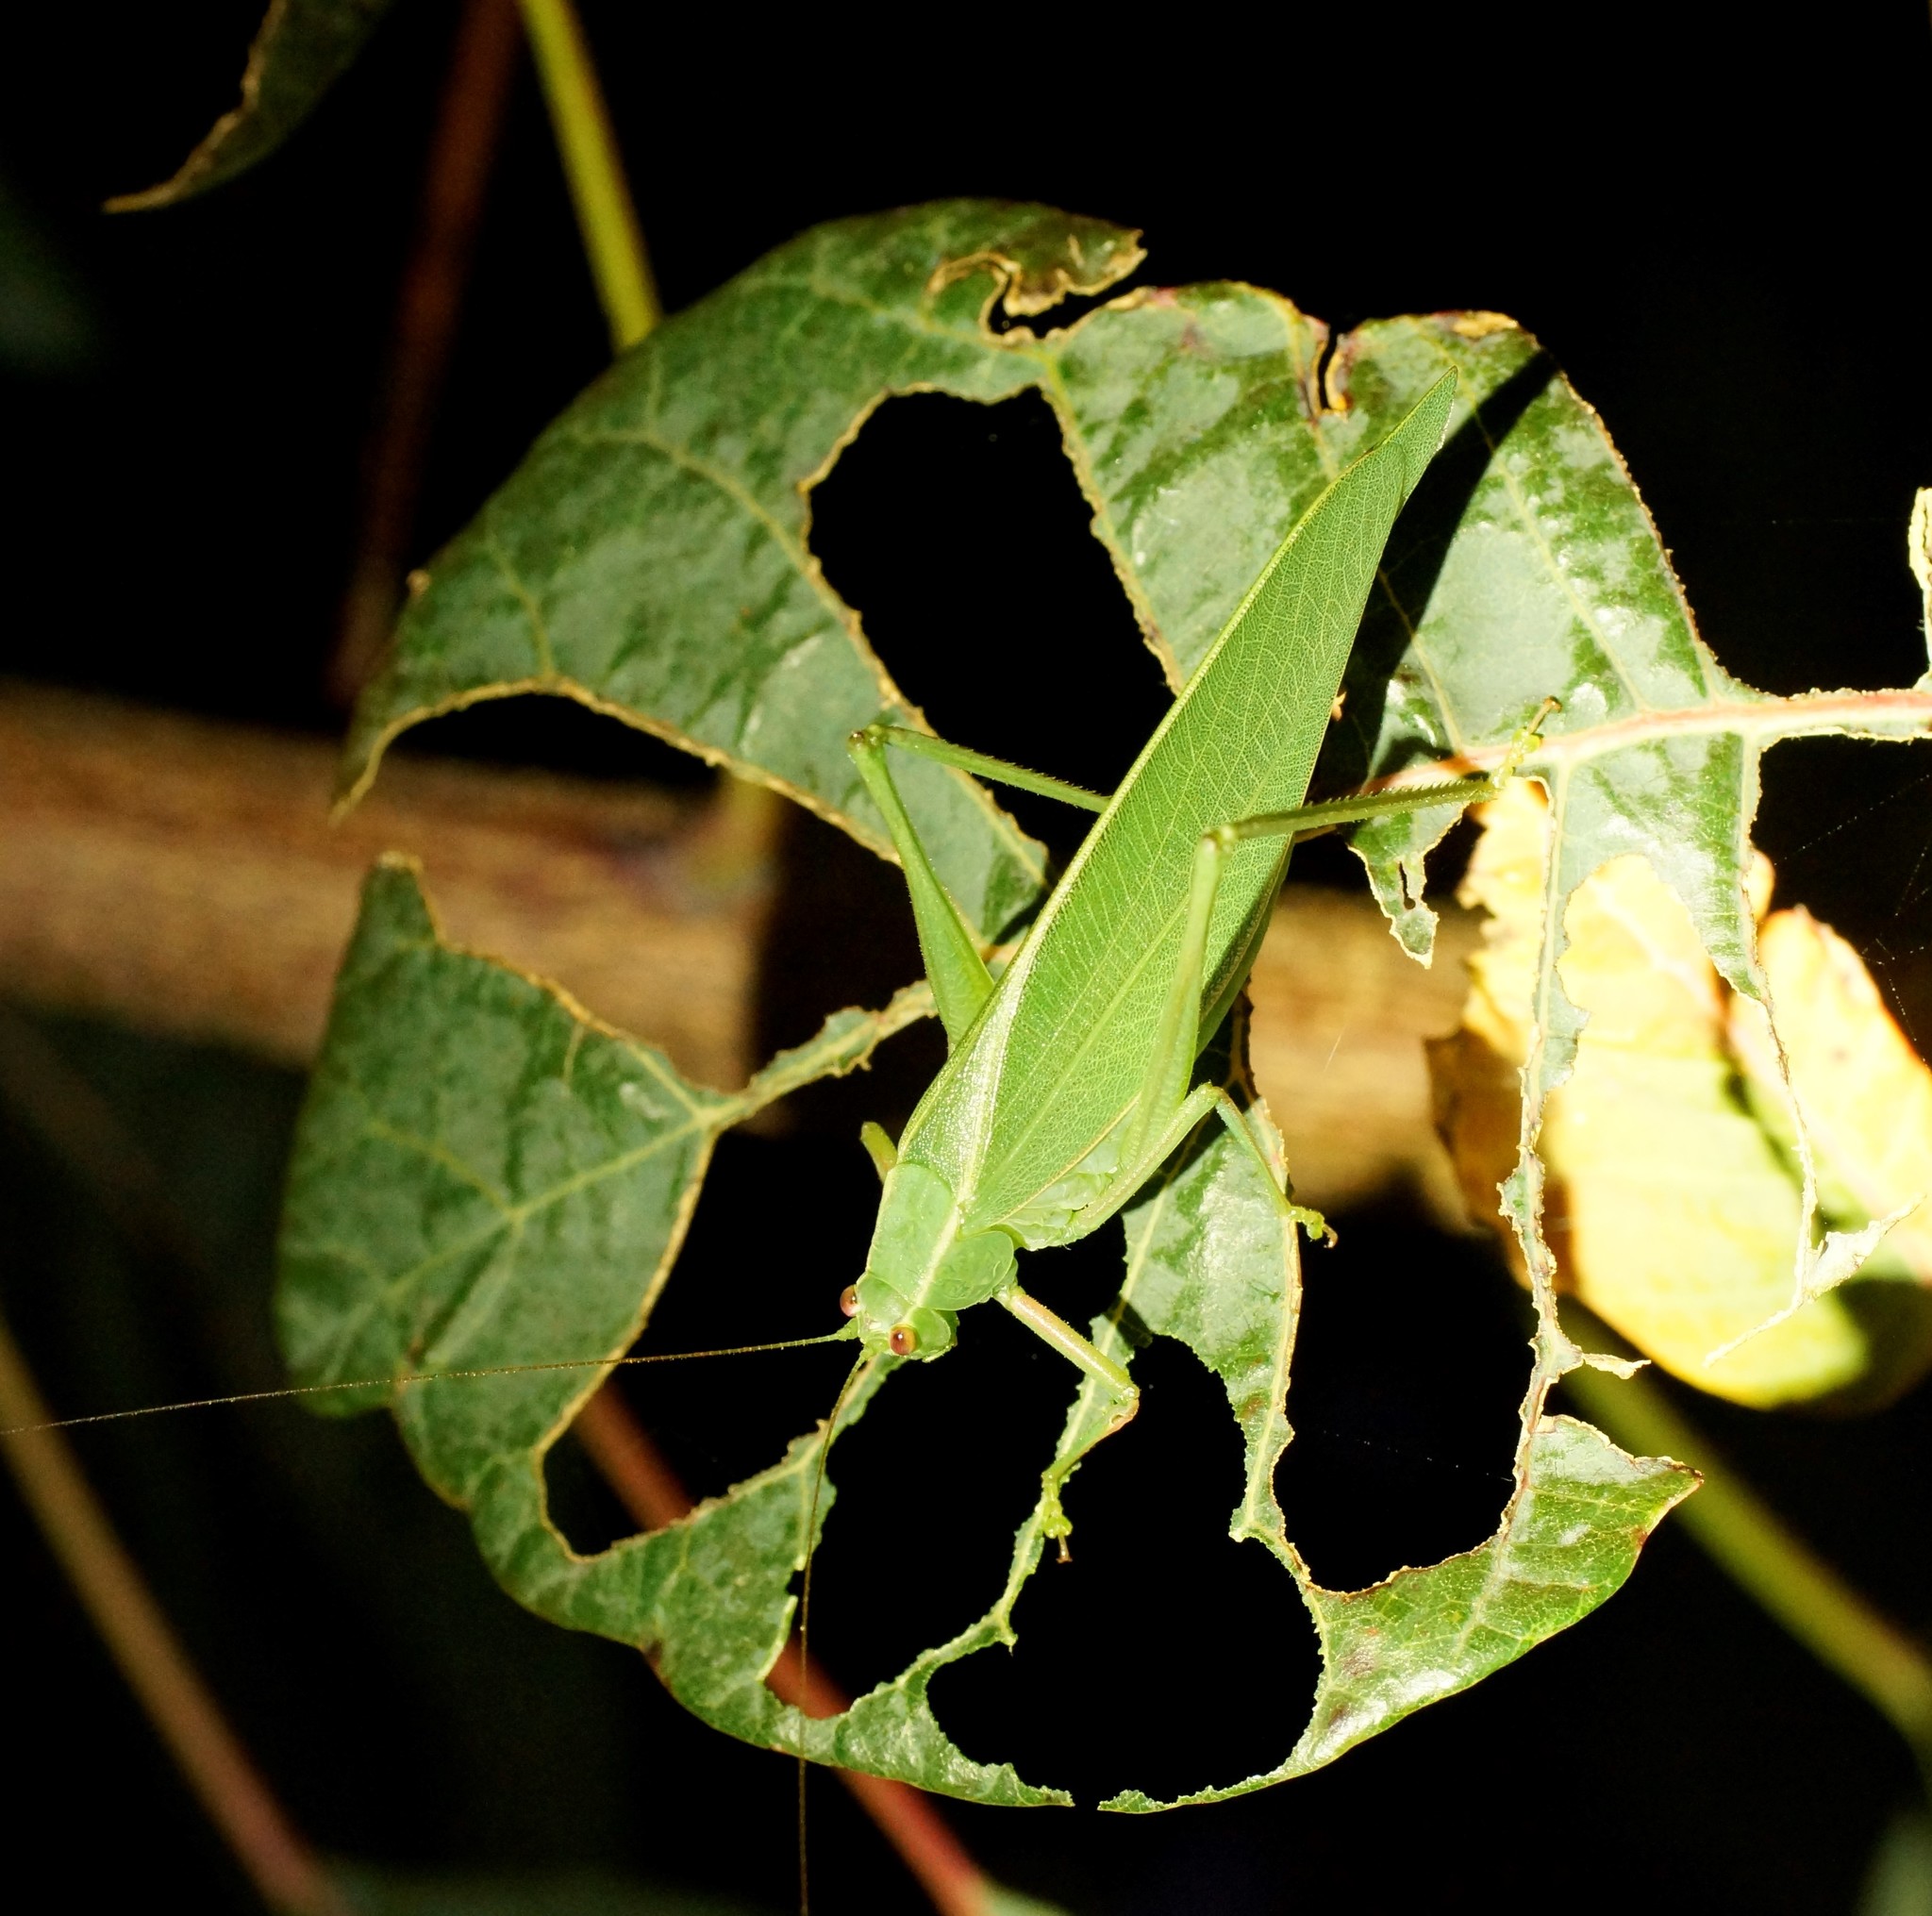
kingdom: Animalia
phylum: Arthropoda
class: Insecta
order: Orthoptera
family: Tettigoniidae
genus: Caedicia
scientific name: Caedicia simplex
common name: Common garden katydid
